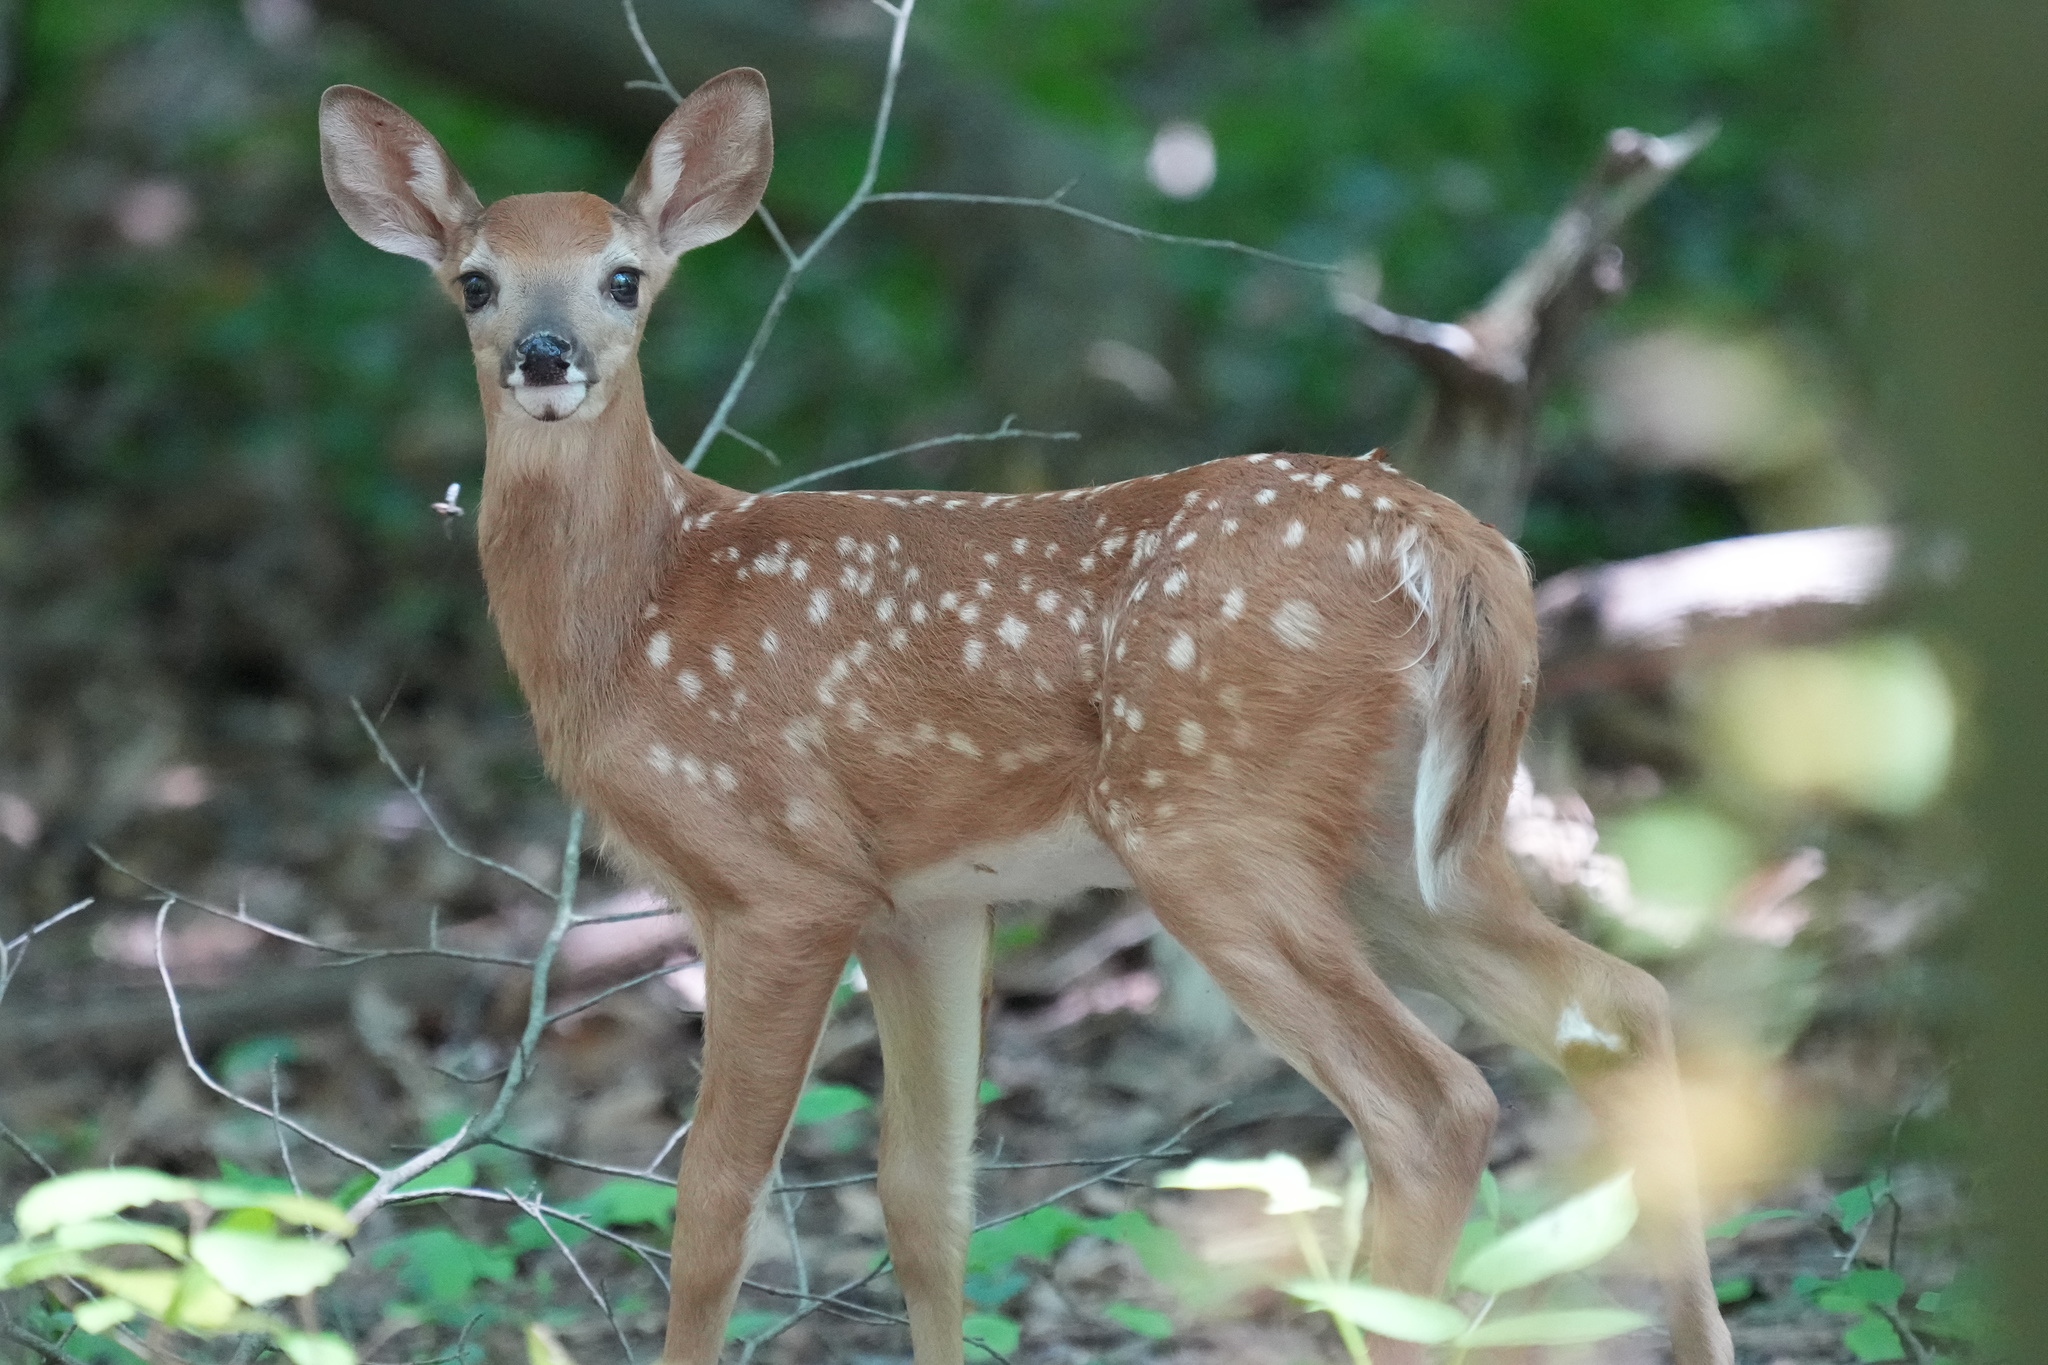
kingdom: Animalia
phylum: Chordata
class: Mammalia
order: Artiodactyla
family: Cervidae
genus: Odocoileus
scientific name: Odocoileus virginianus
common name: White-tailed deer
